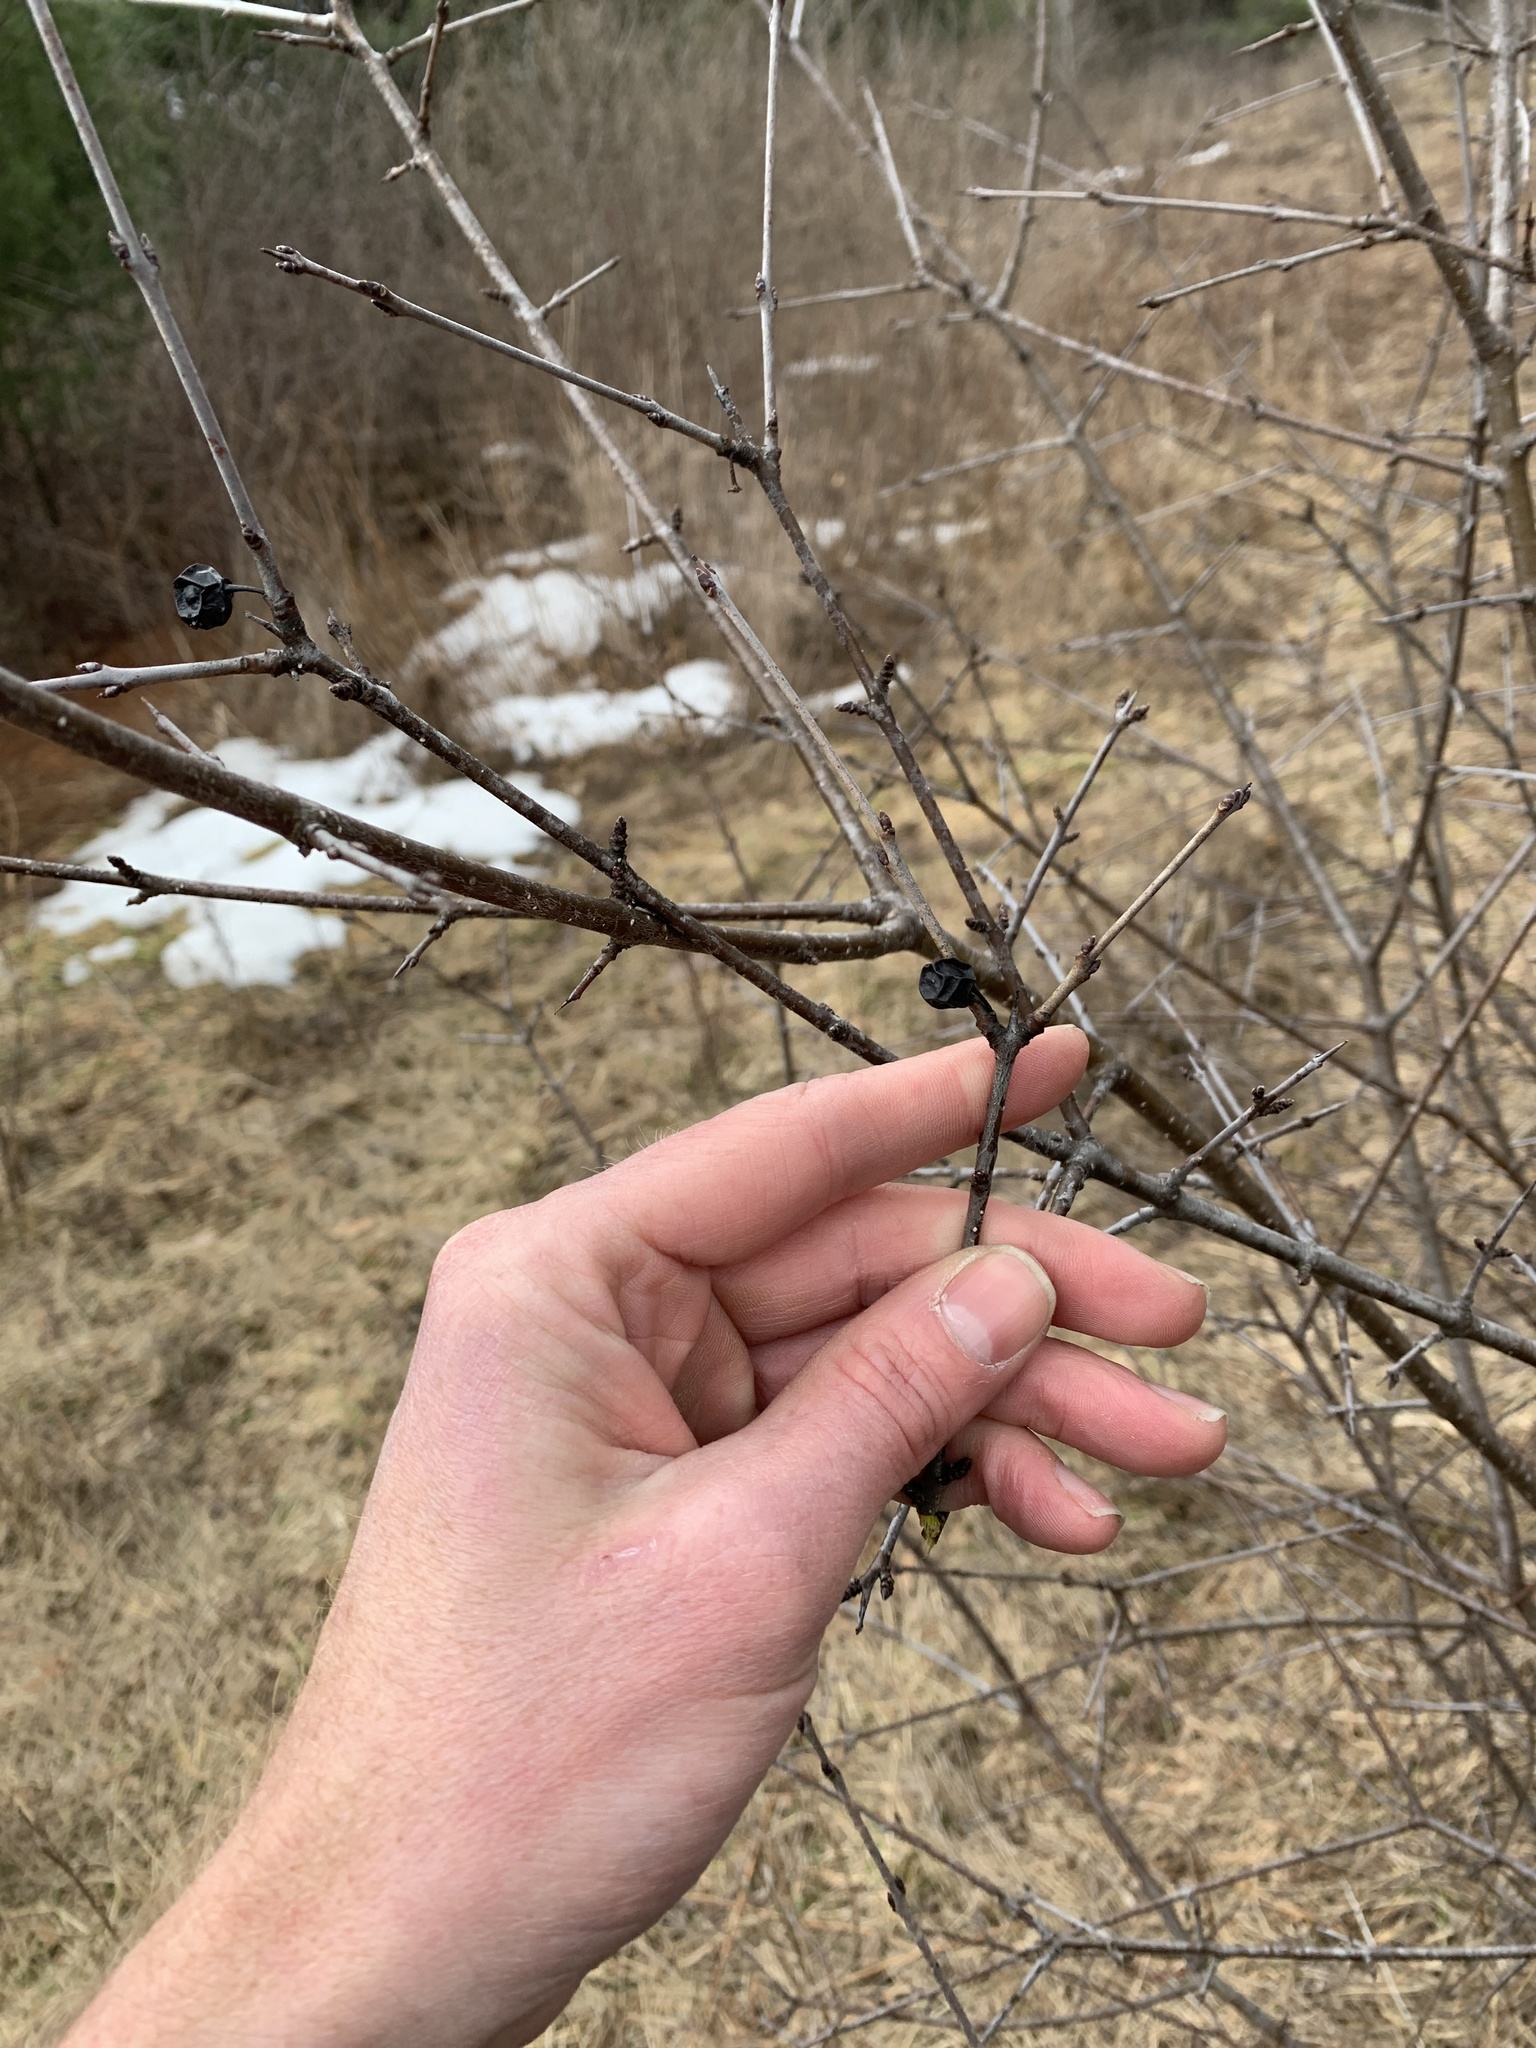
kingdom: Plantae
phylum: Tracheophyta
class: Magnoliopsida
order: Rosales
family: Rhamnaceae
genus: Rhamnus
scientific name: Rhamnus cathartica
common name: Common buckthorn
